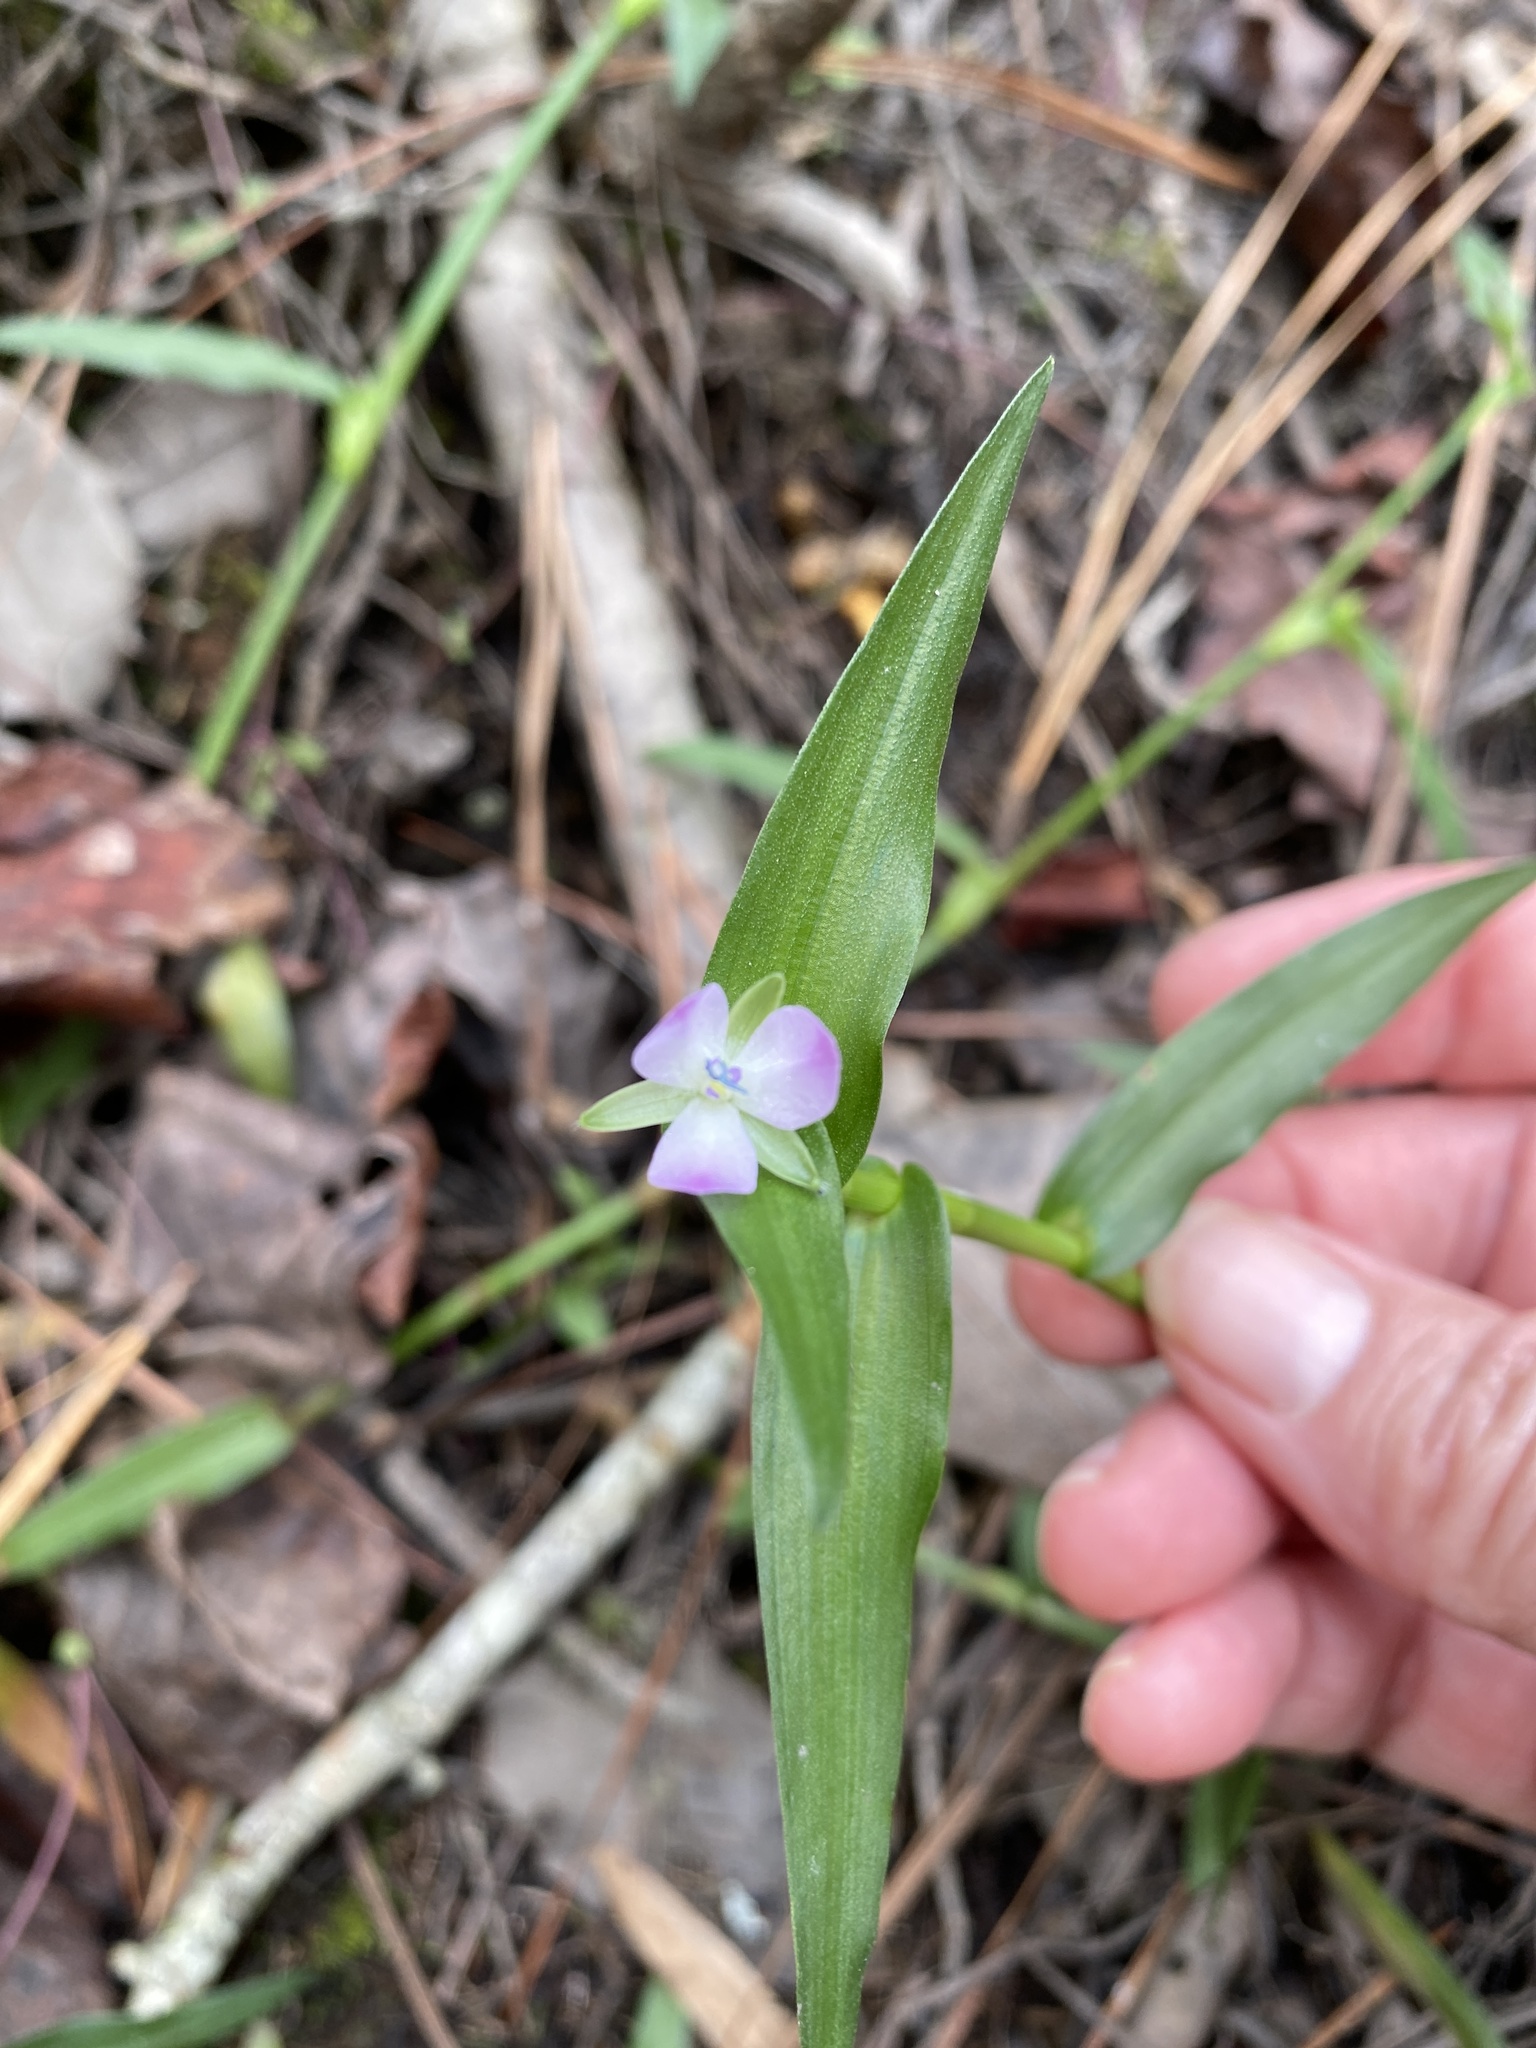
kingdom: Plantae
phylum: Tracheophyta
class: Liliopsida
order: Commelinales
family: Commelinaceae
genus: Murdannia
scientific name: Murdannia keisak
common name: Wartremoving herb
